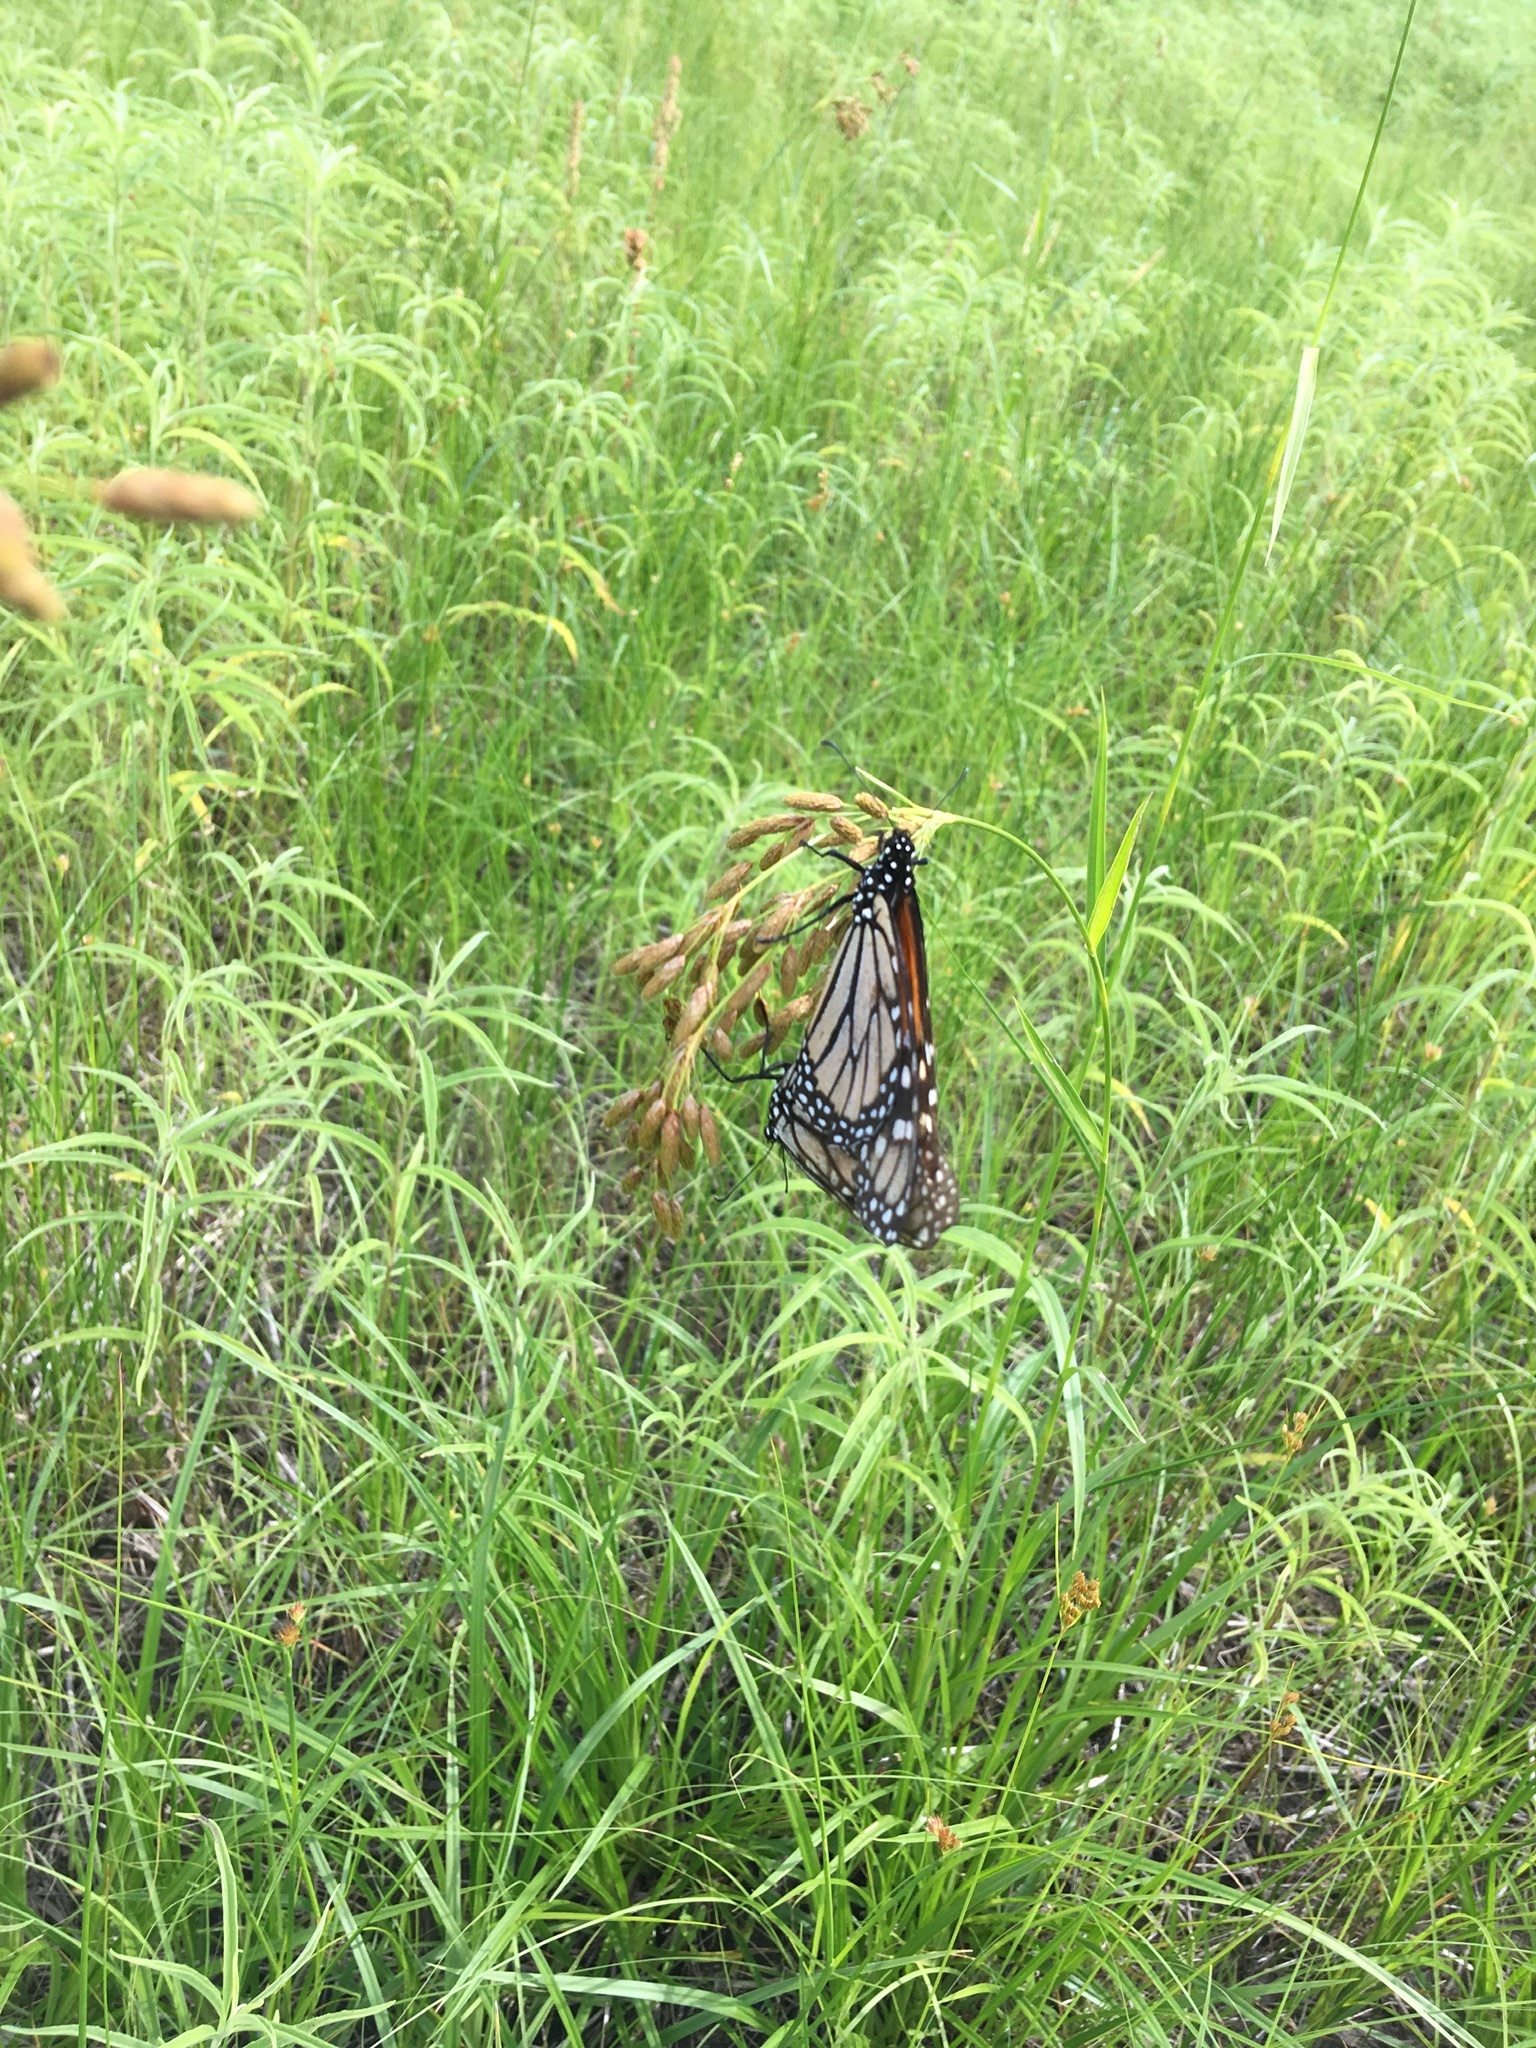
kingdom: Animalia
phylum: Arthropoda
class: Insecta
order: Lepidoptera
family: Nymphalidae
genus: Danaus
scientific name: Danaus plexippus
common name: Monarch
